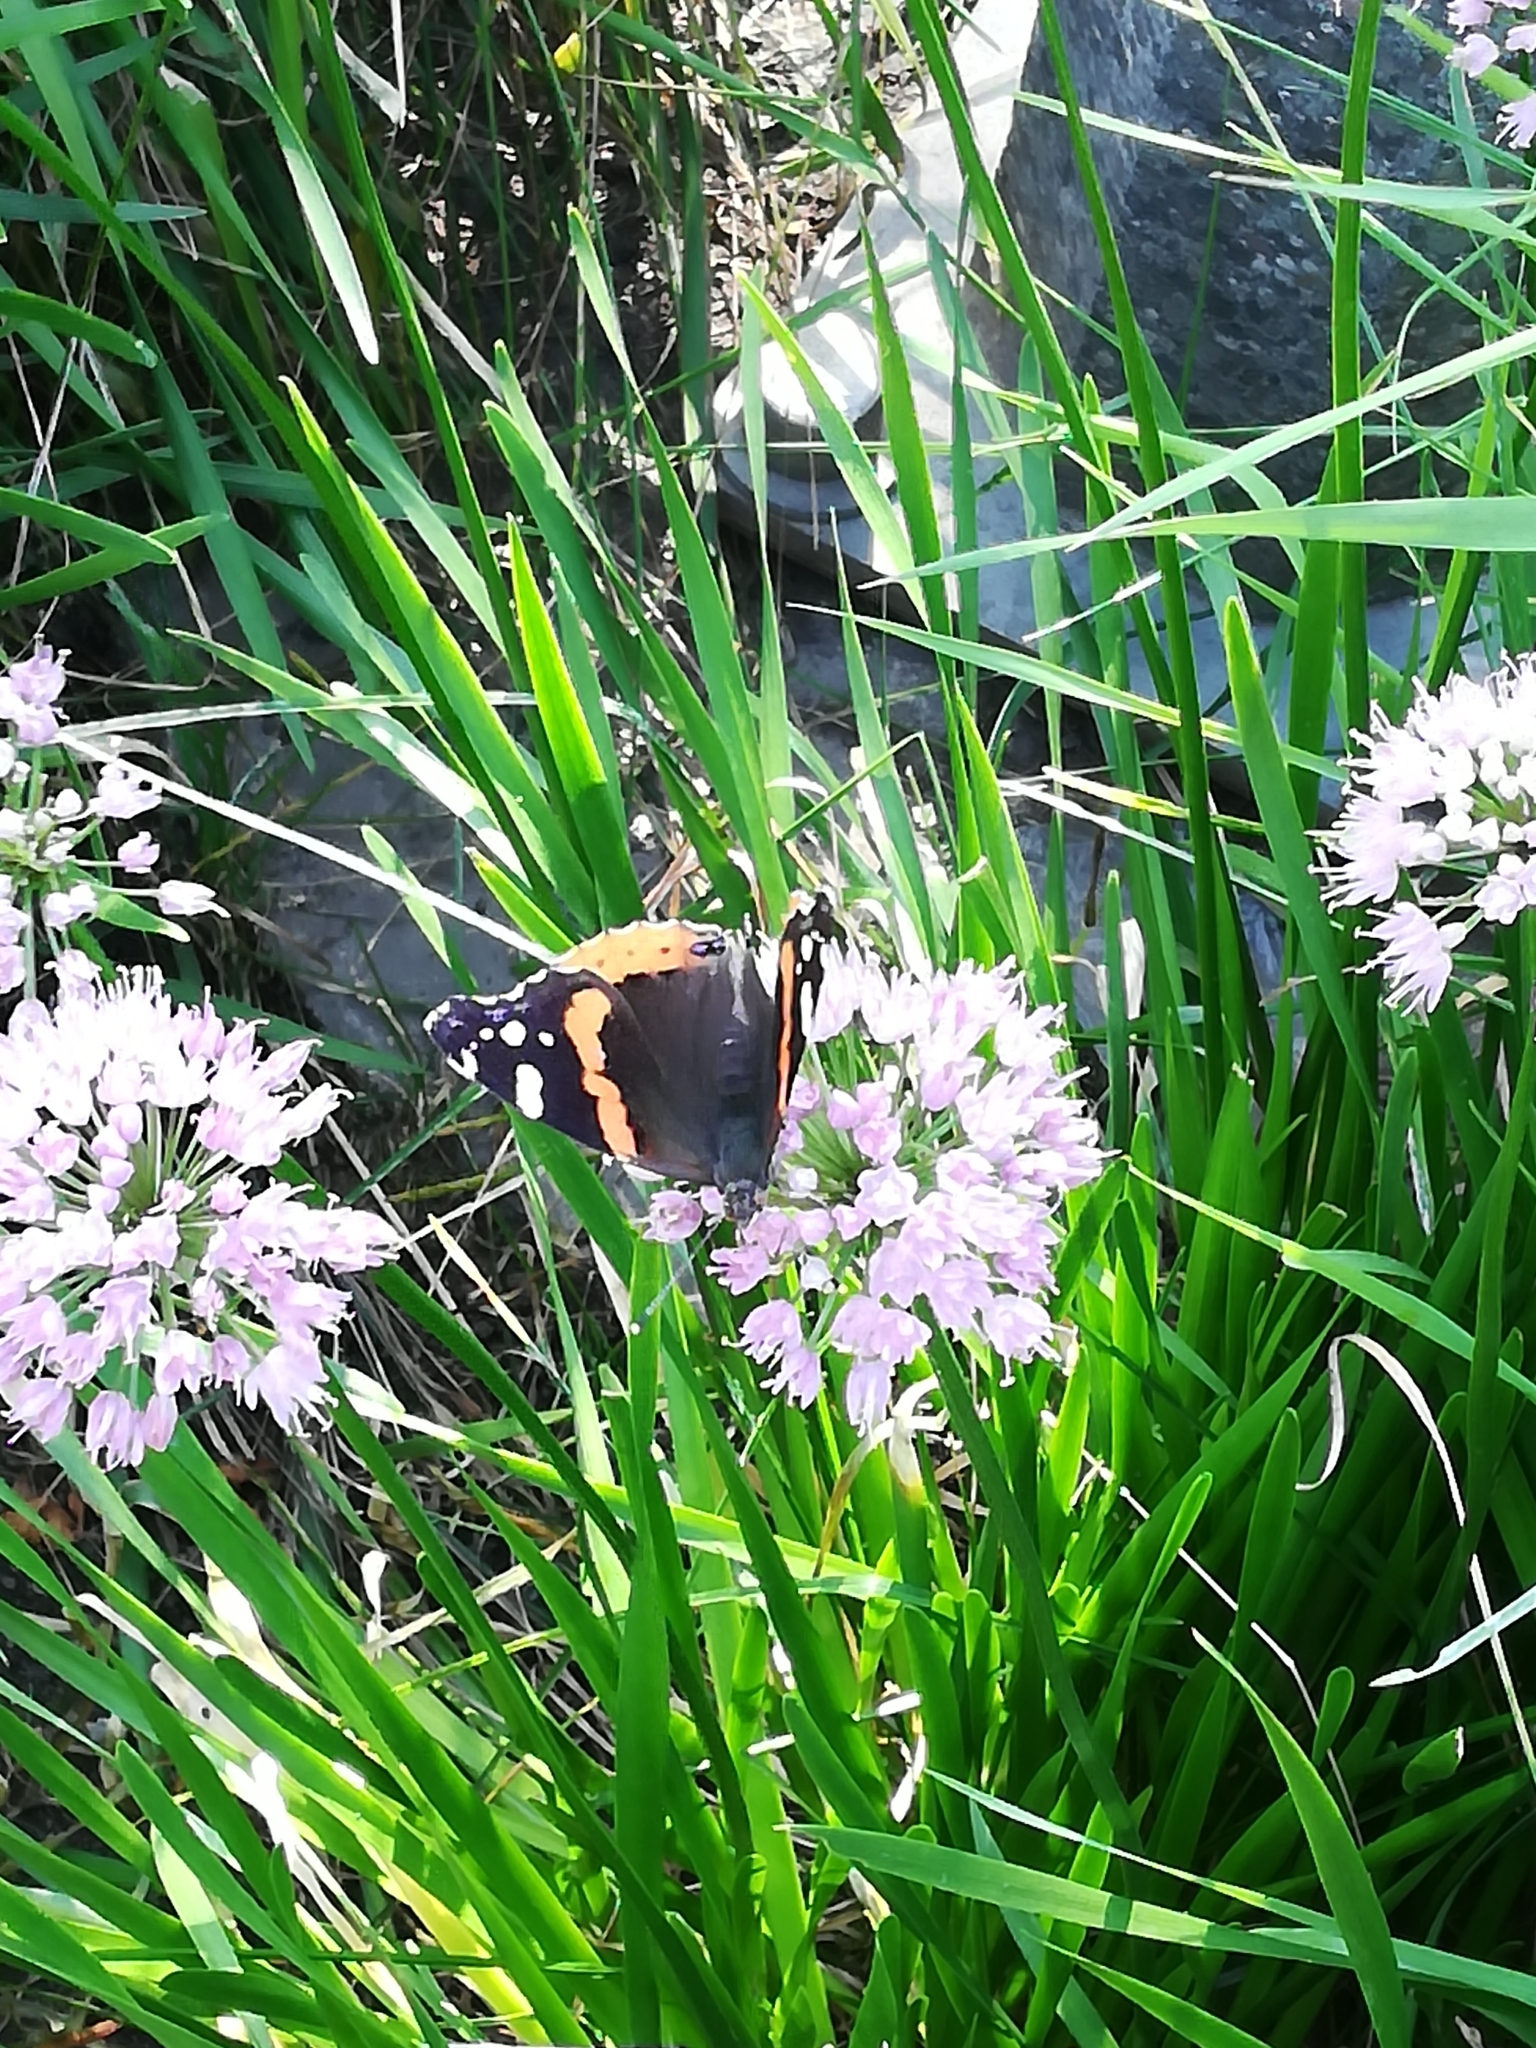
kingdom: Animalia
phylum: Arthropoda
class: Insecta
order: Lepidoptera
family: Nymphalidae
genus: Vanessa
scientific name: Vanessa atalanta
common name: Red admiral
